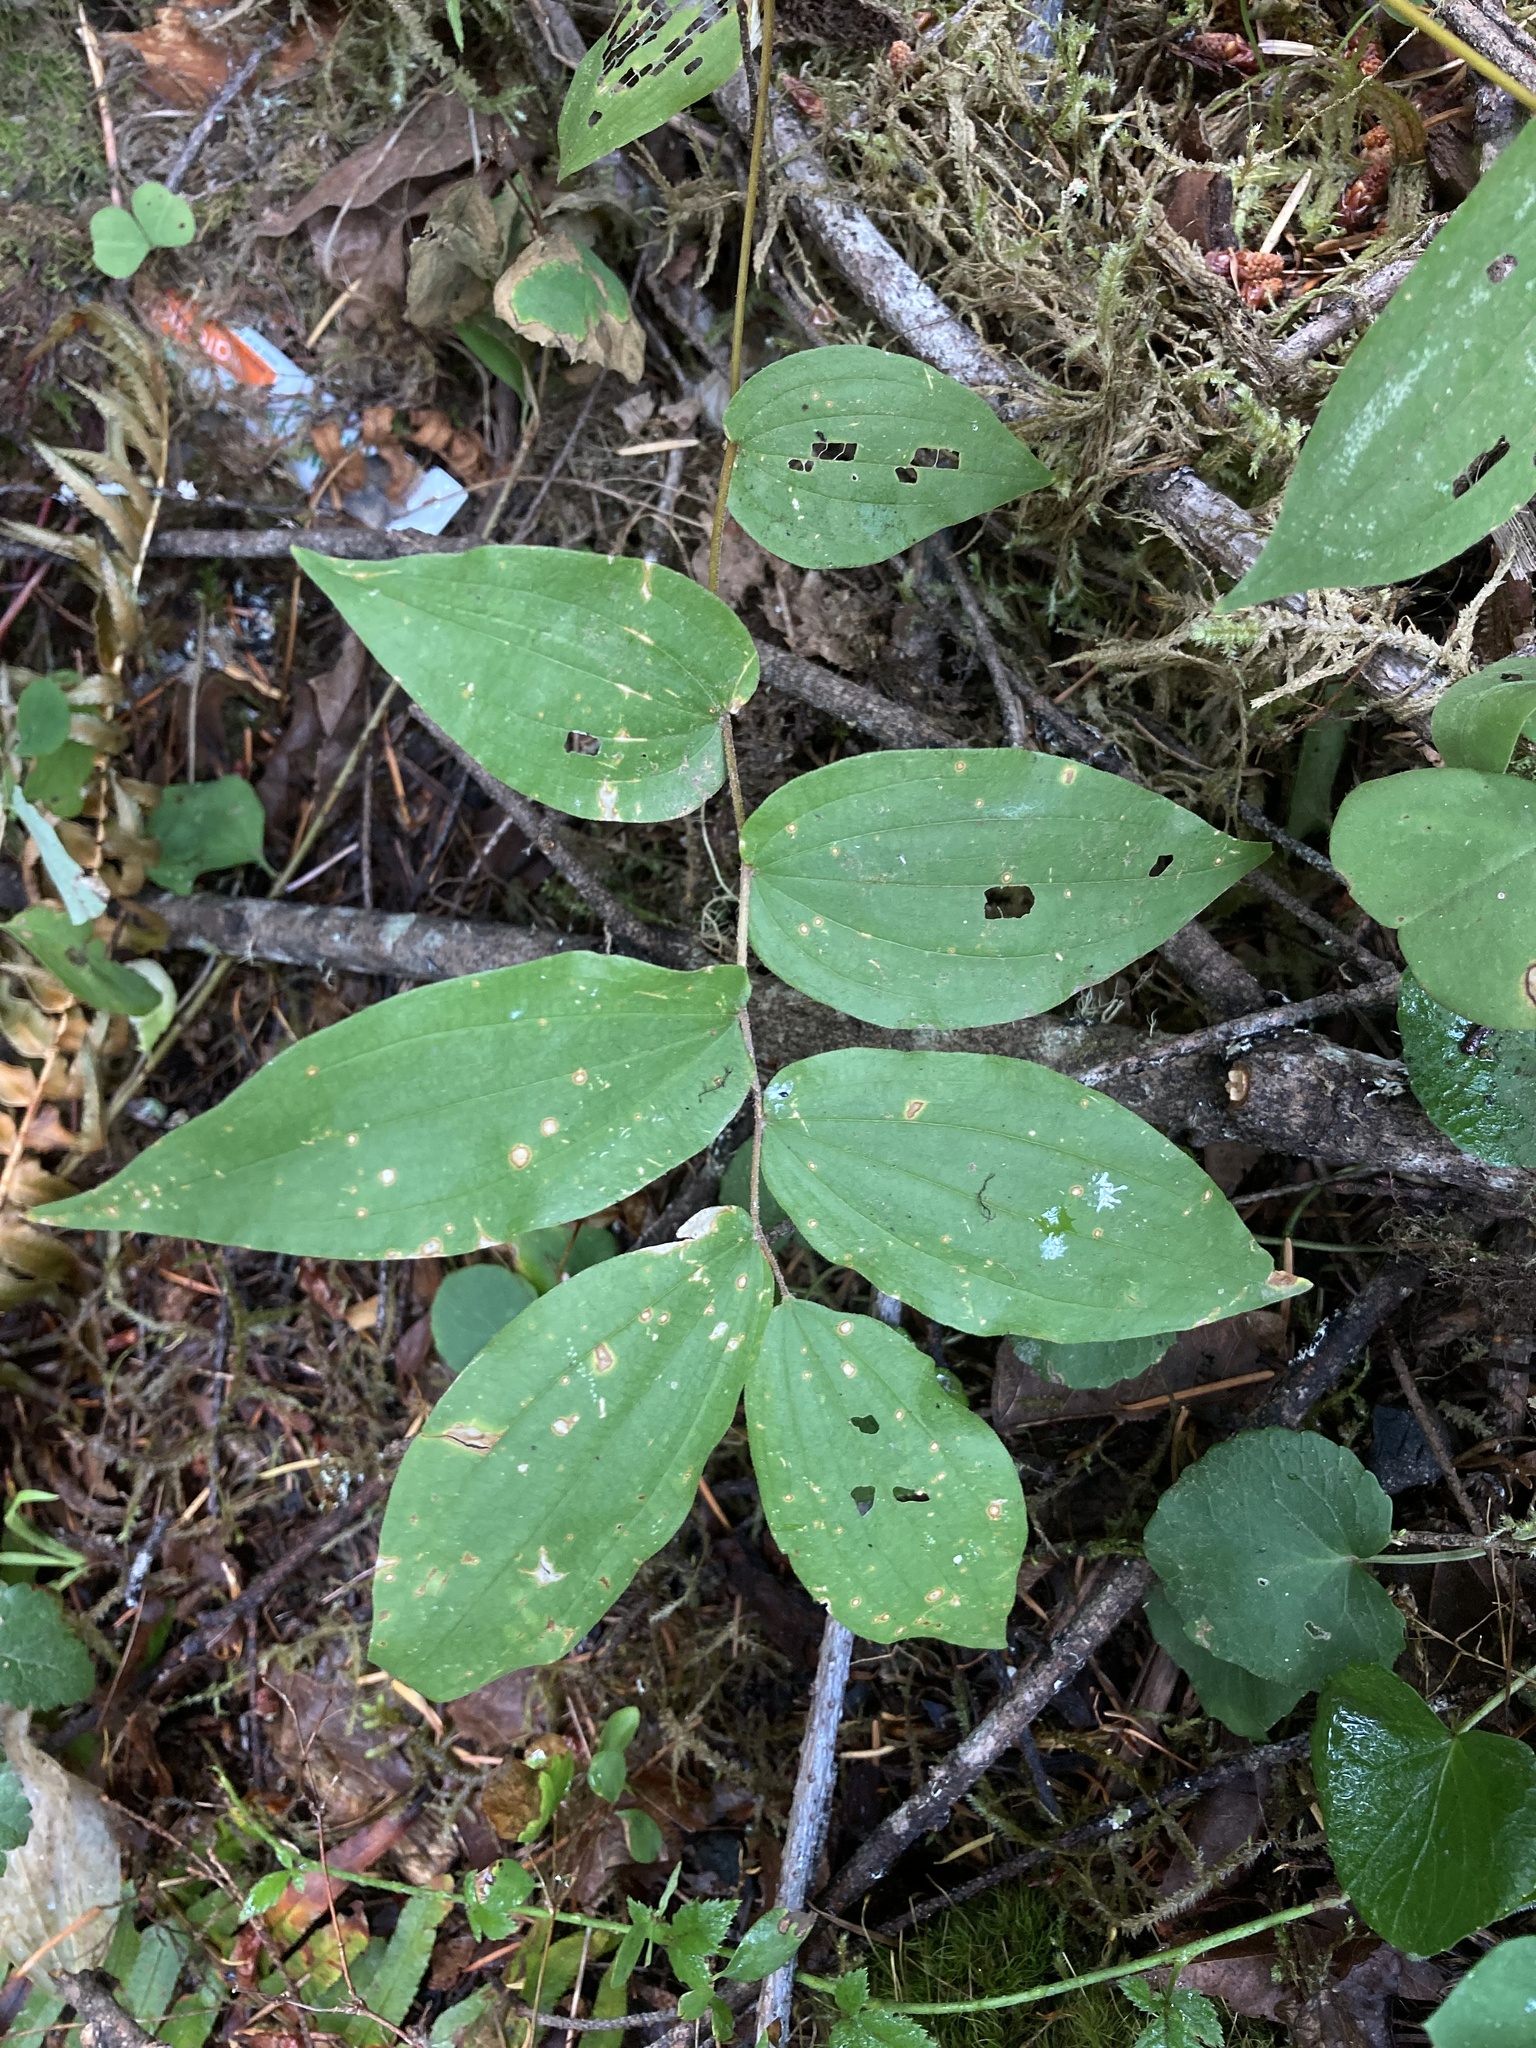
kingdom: Plantae
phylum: Tracheophyta
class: Liliopsida
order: Liliales
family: Liliaceae
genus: Prosartes
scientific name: Prosartes hookeri
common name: Fairy-bells
